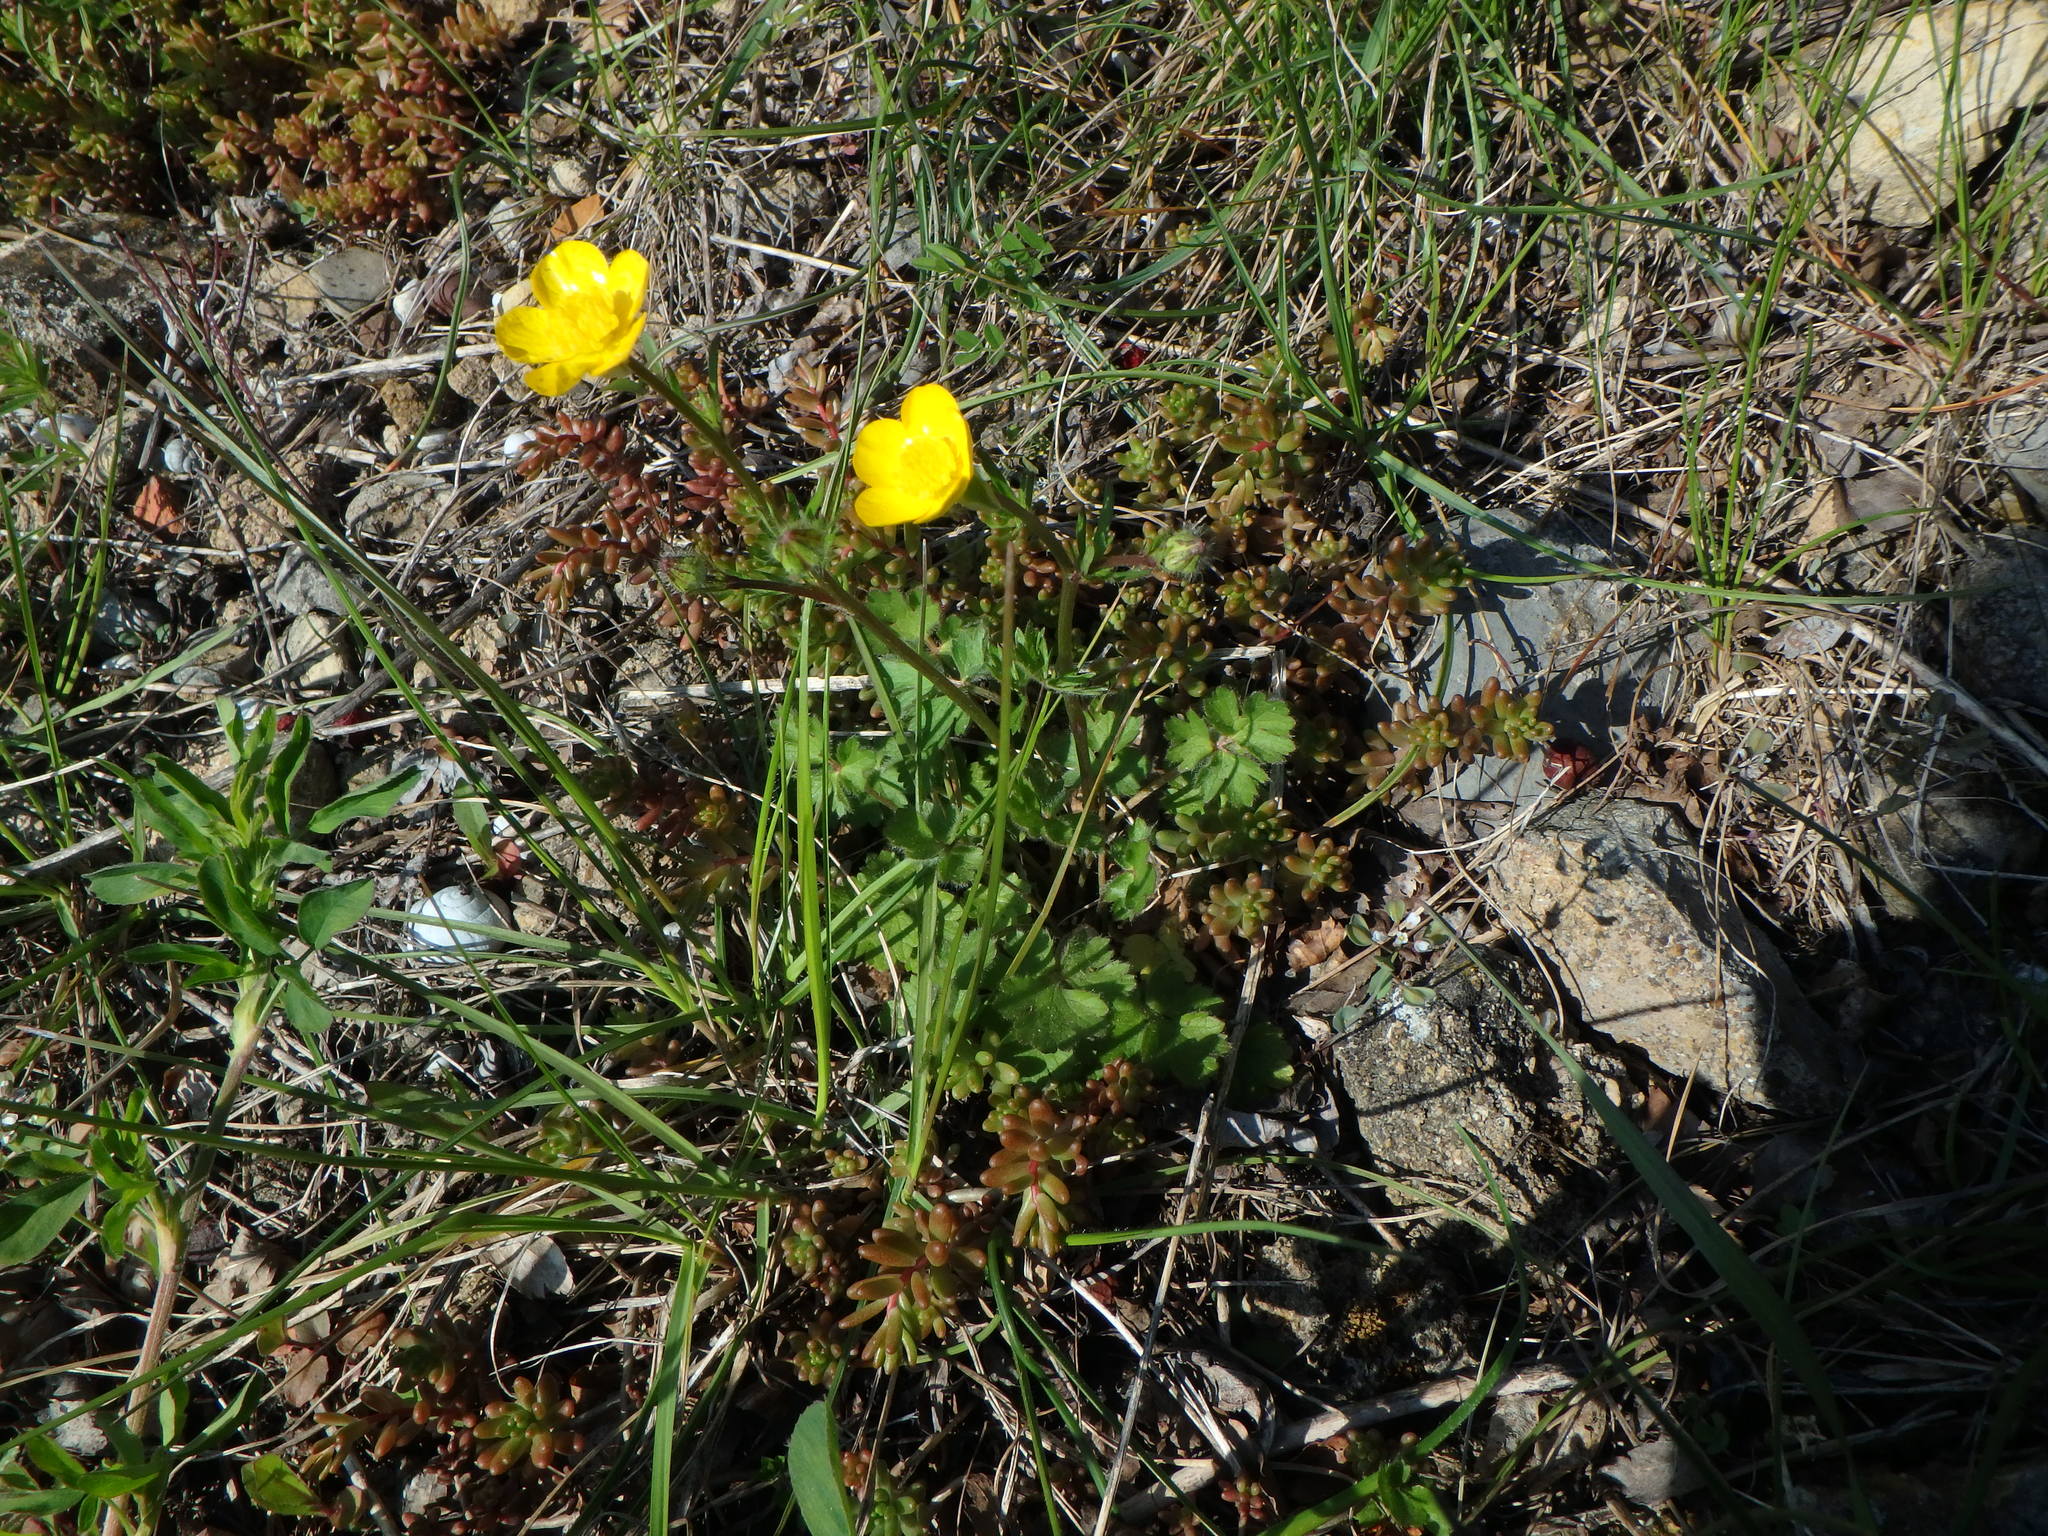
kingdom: Plantae
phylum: Tracheophyta
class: Magnoliopsida
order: Ranunculales
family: Ranunculaceae
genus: Ranunculus
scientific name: Ranunculus bulbosus
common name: Bulbous buttercup
